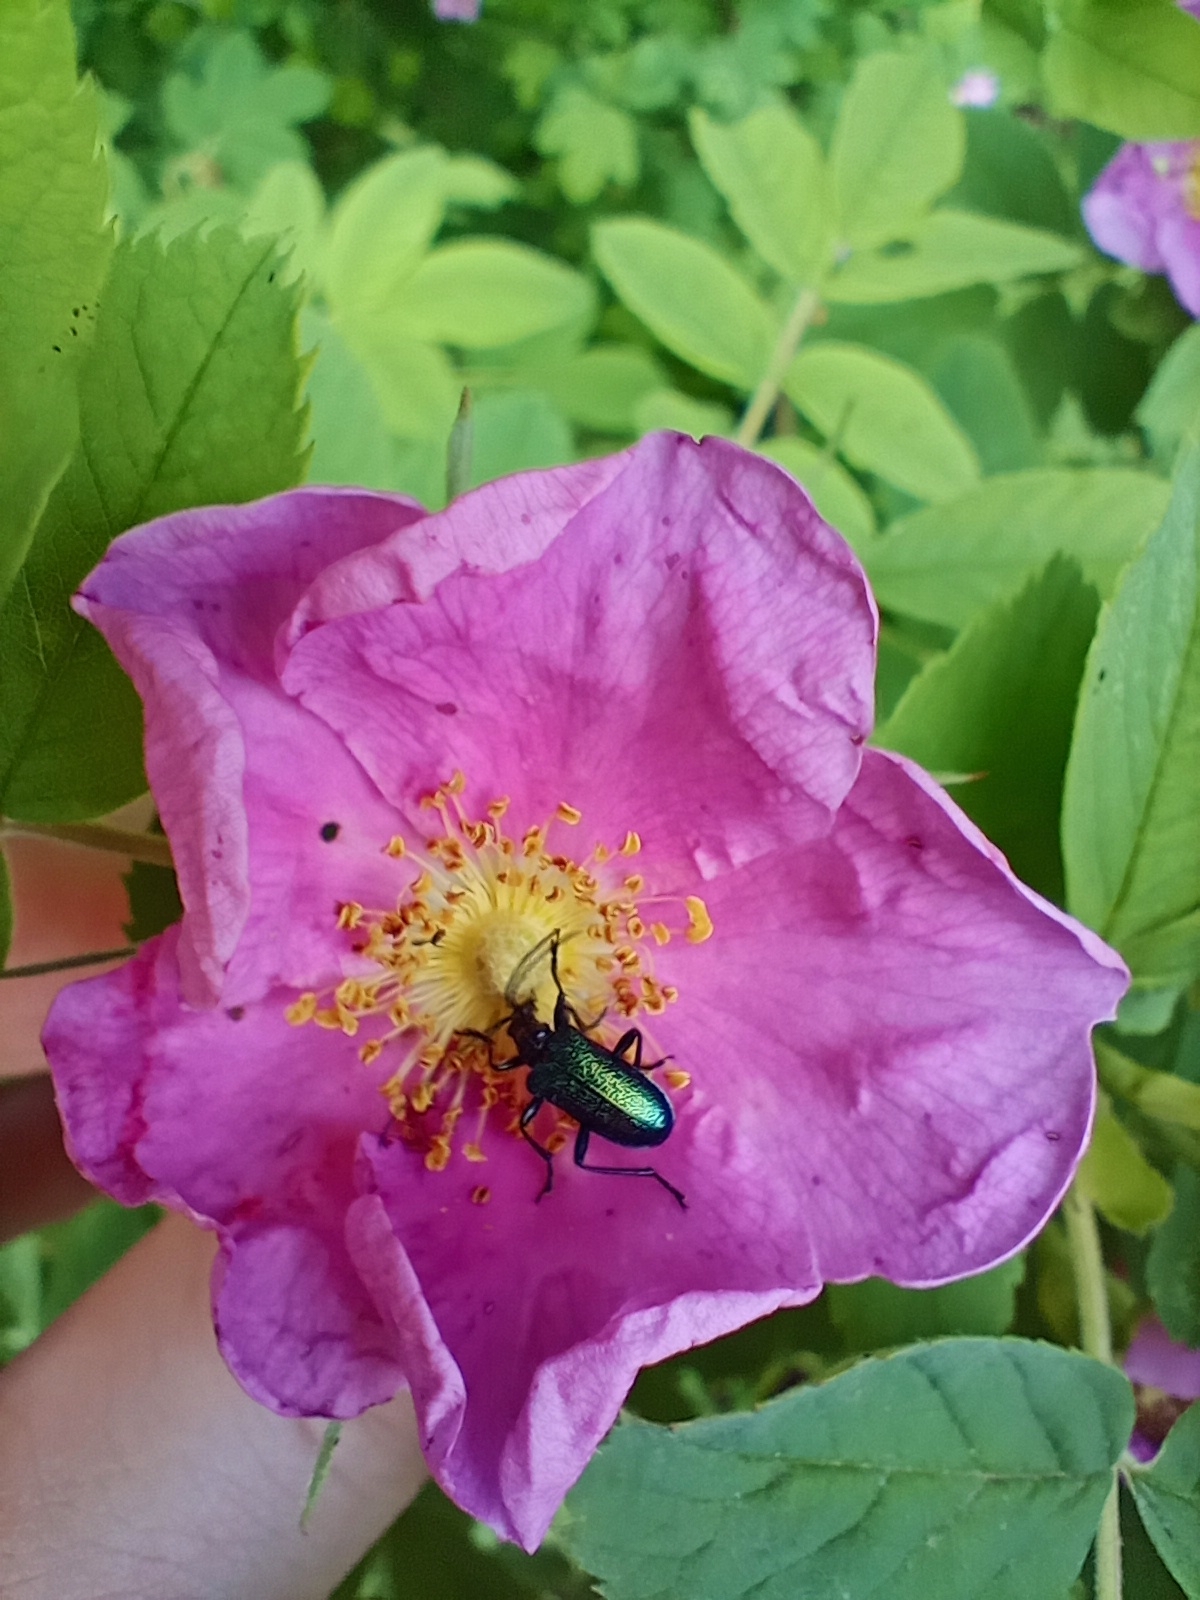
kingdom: Animalia
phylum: Arthropoda
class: Insecta
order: Coleoptera
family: Cerambycidae
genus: Gaurotes
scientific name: Gaurotes virginea
